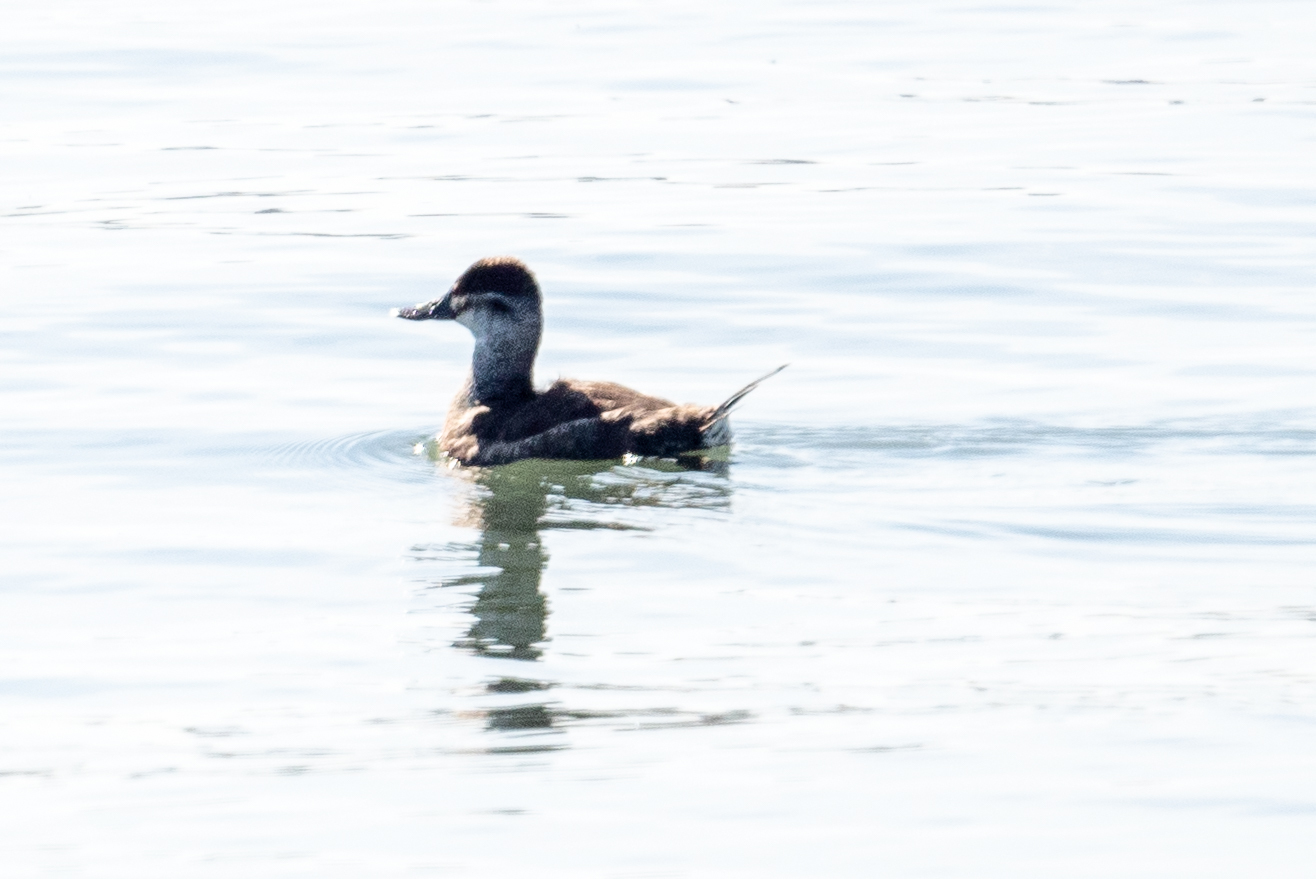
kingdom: Animalia
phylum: Chordata
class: Aves
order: Anseriformes
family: Anatidae
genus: Oxyura
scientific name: Oxyura jamaicensis
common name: Ruddy duck
